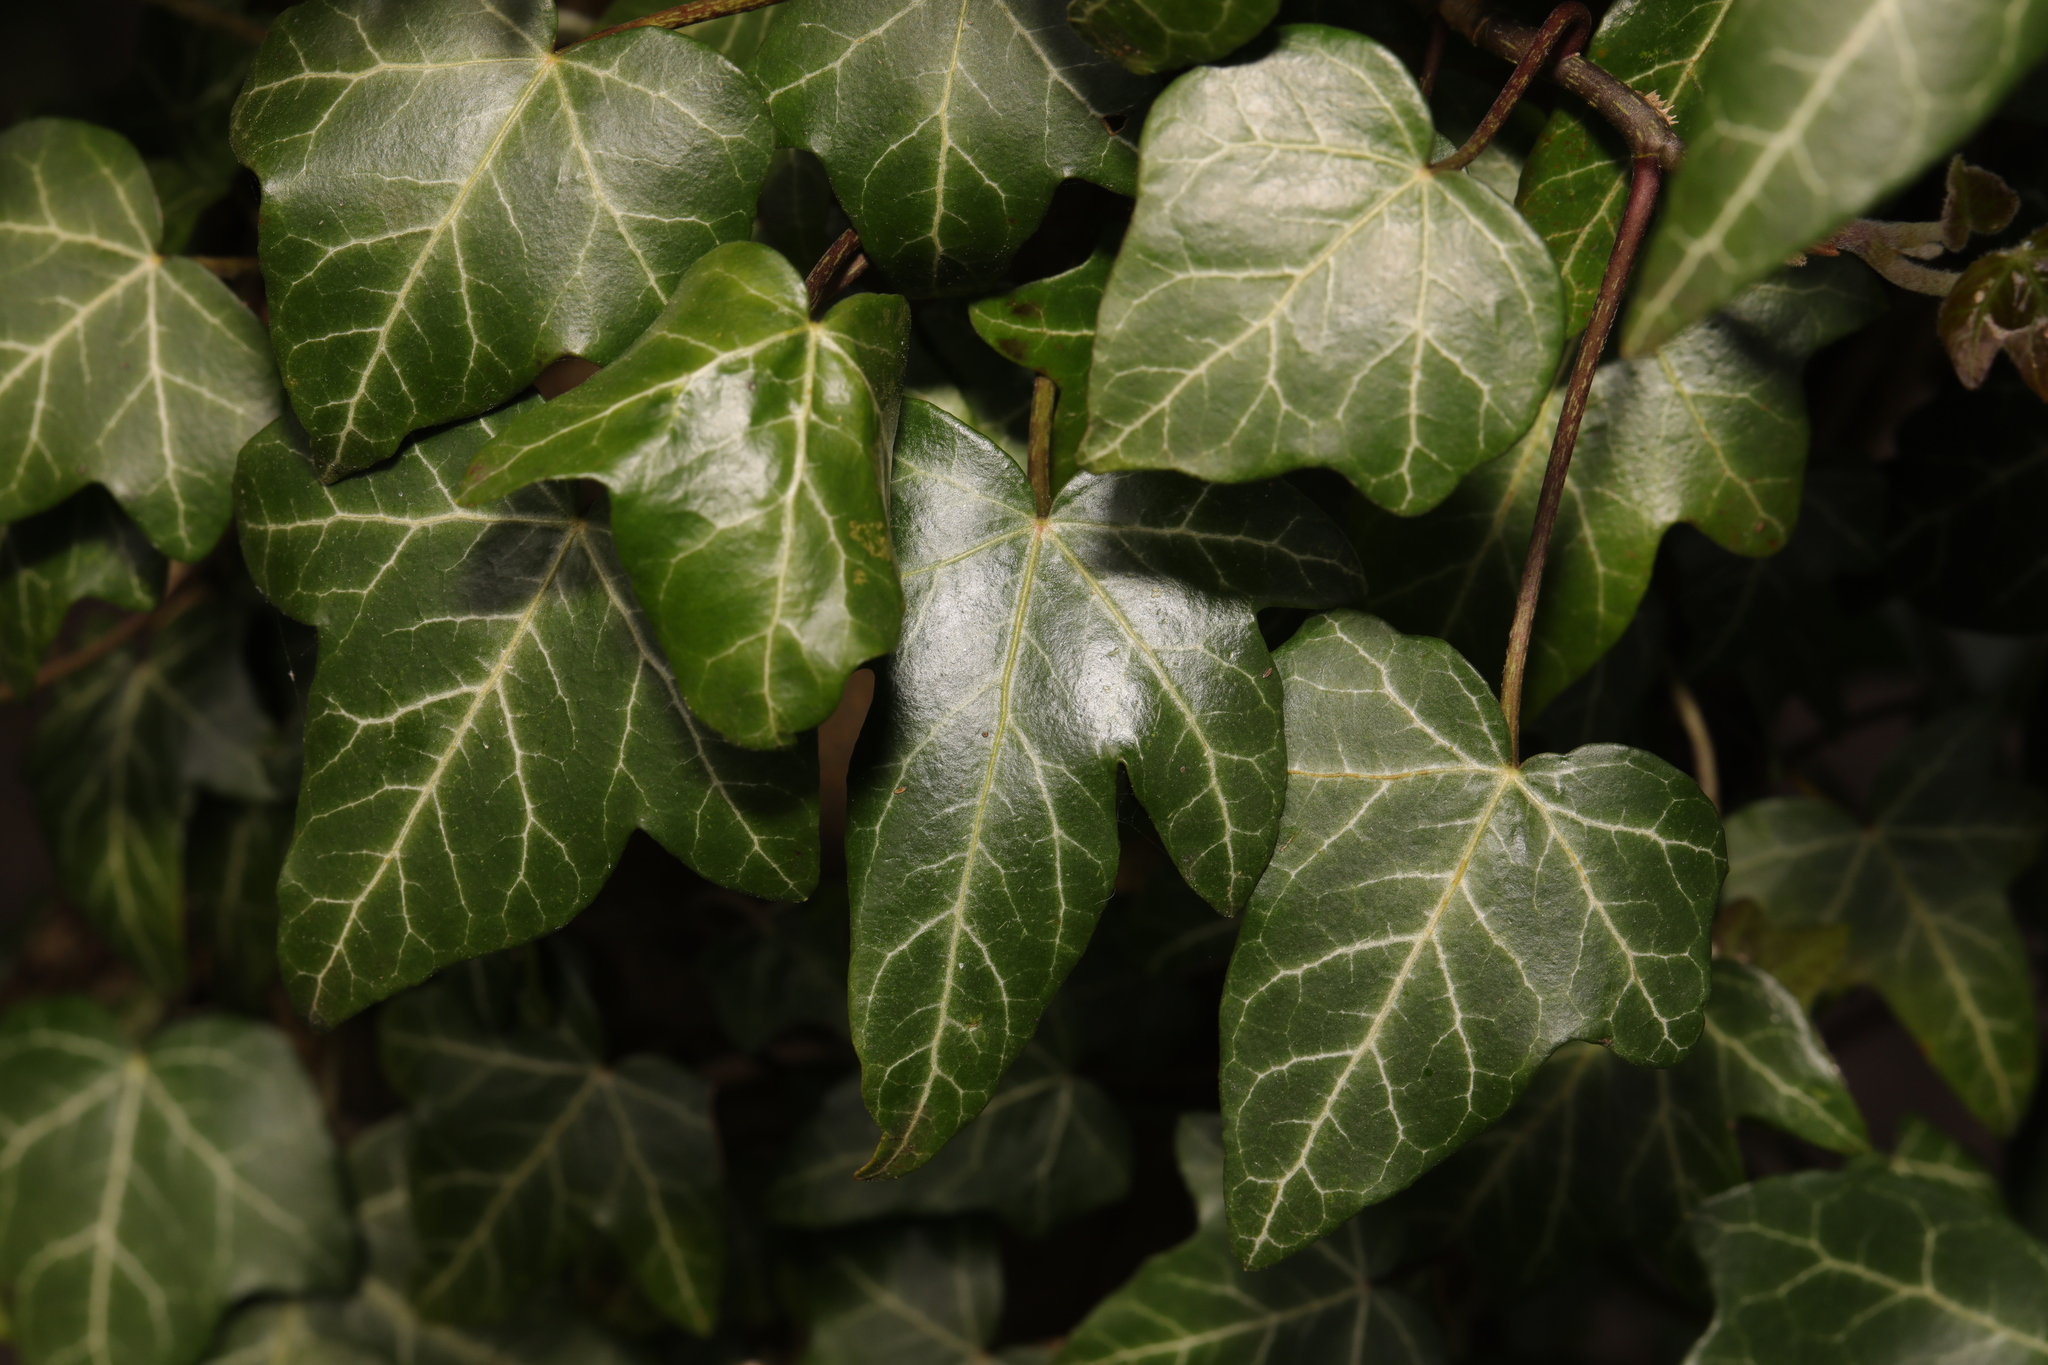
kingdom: Plantae
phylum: Tracheophyta
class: Magnoliopsida
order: Apiales
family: Araliaceae
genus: Hedera
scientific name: Hedera helix
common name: Ivy
